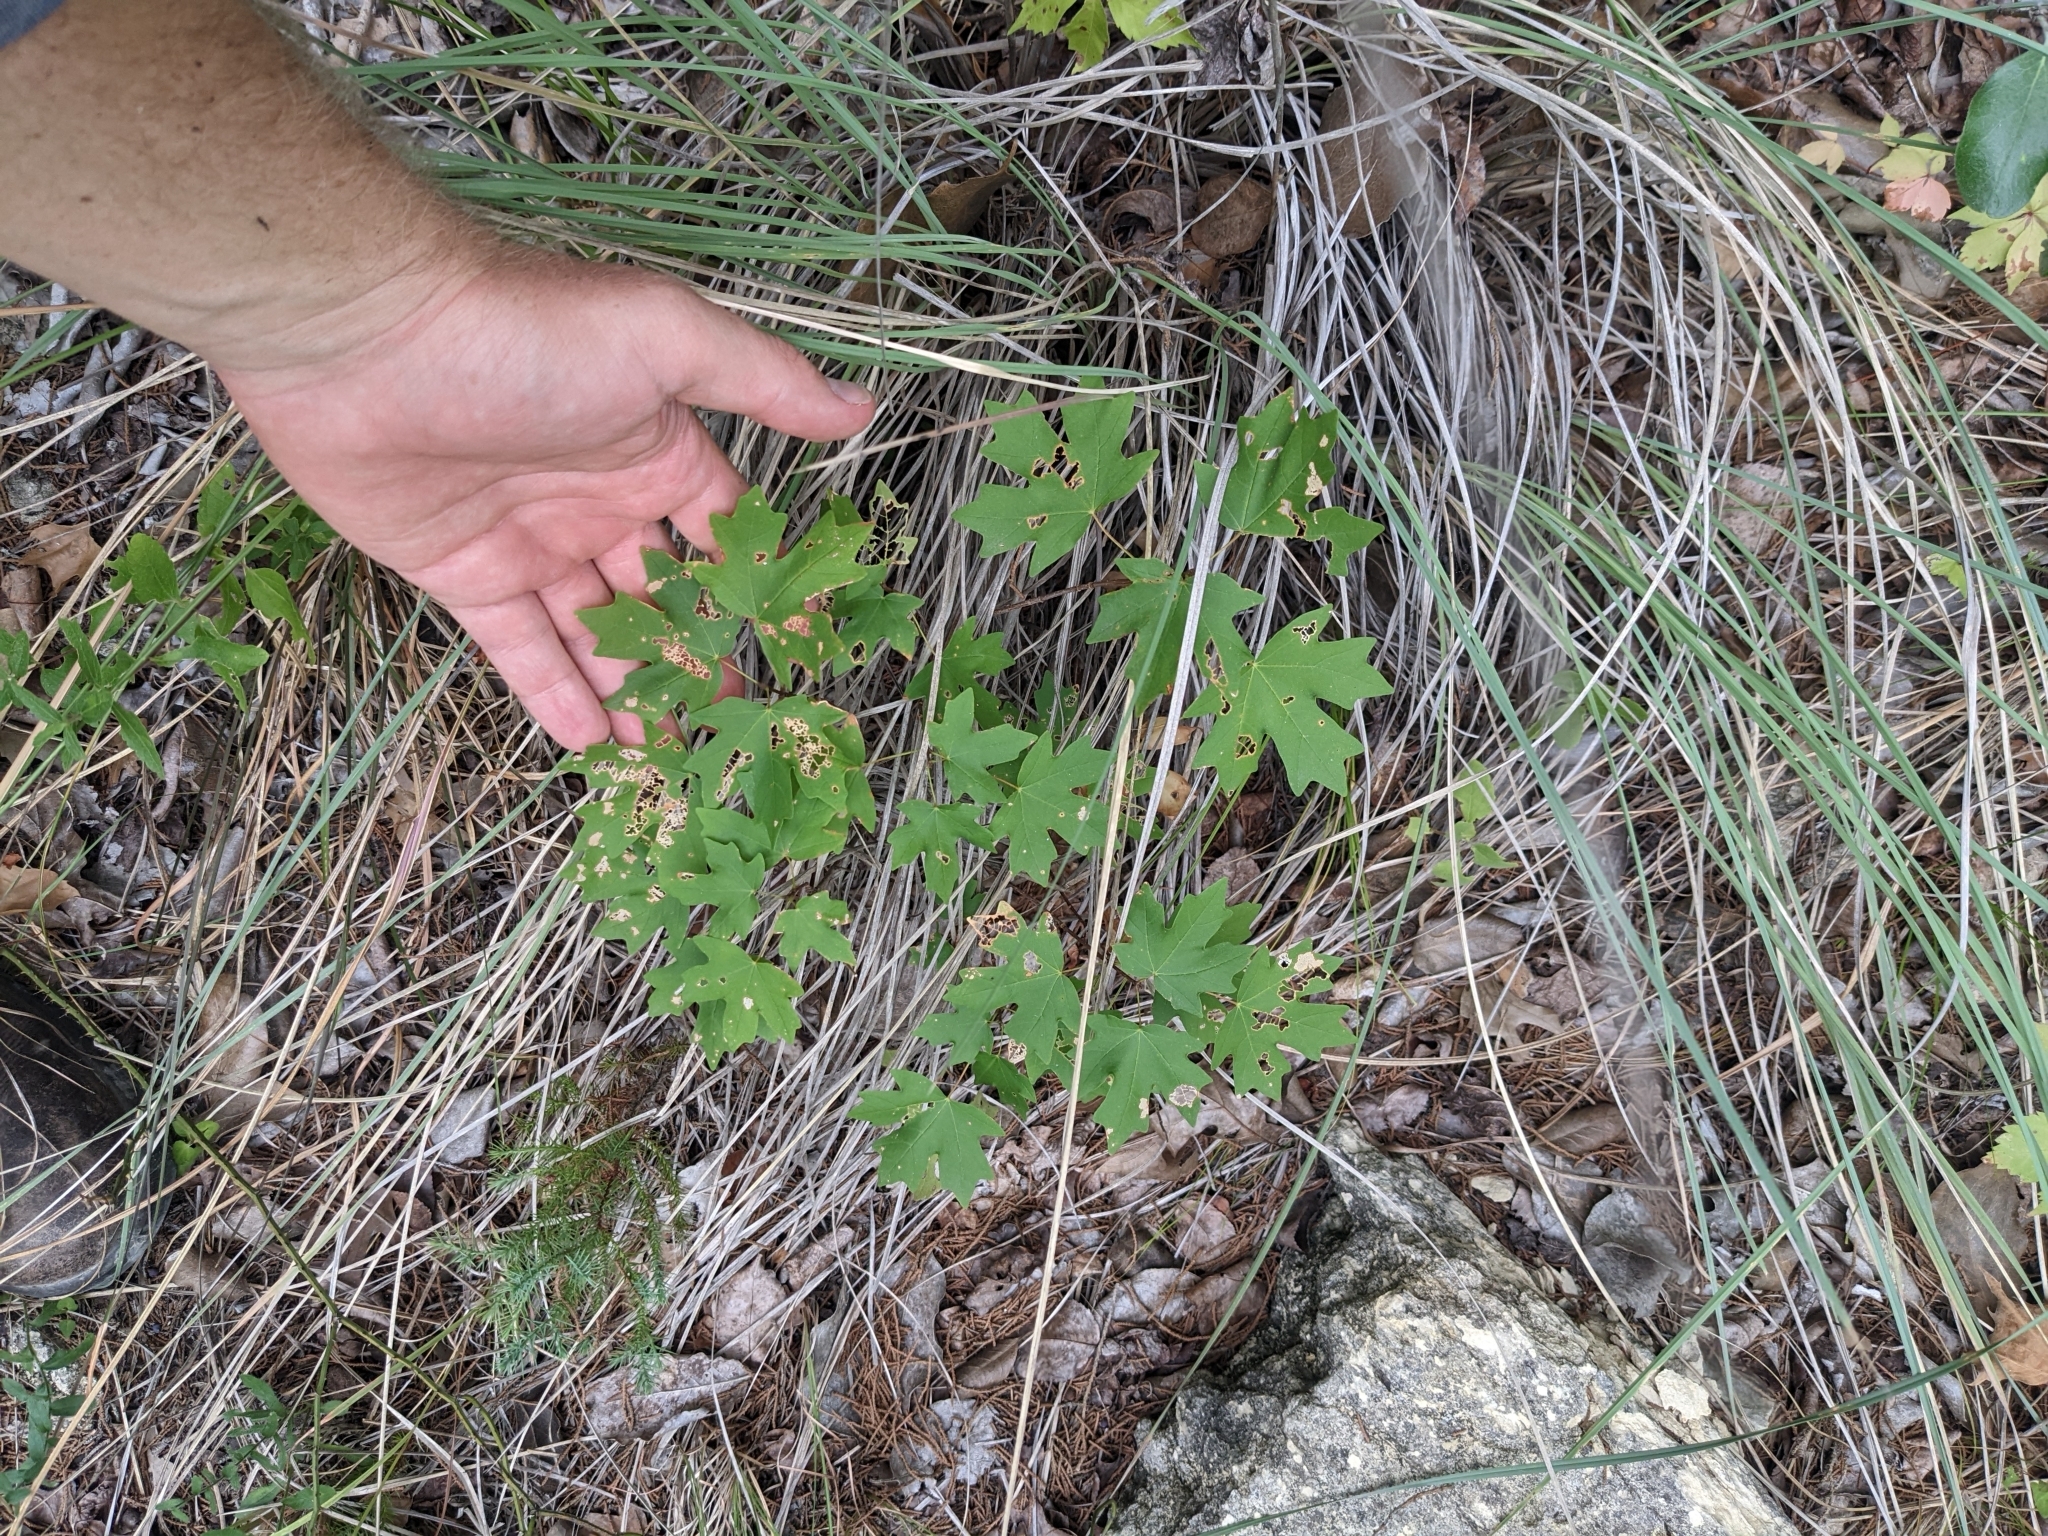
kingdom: Plantae
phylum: Tracheophyta
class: Magnoliopsida
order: Sapindales
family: Sapindaceae
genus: Acer
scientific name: Acer grandidentatum
